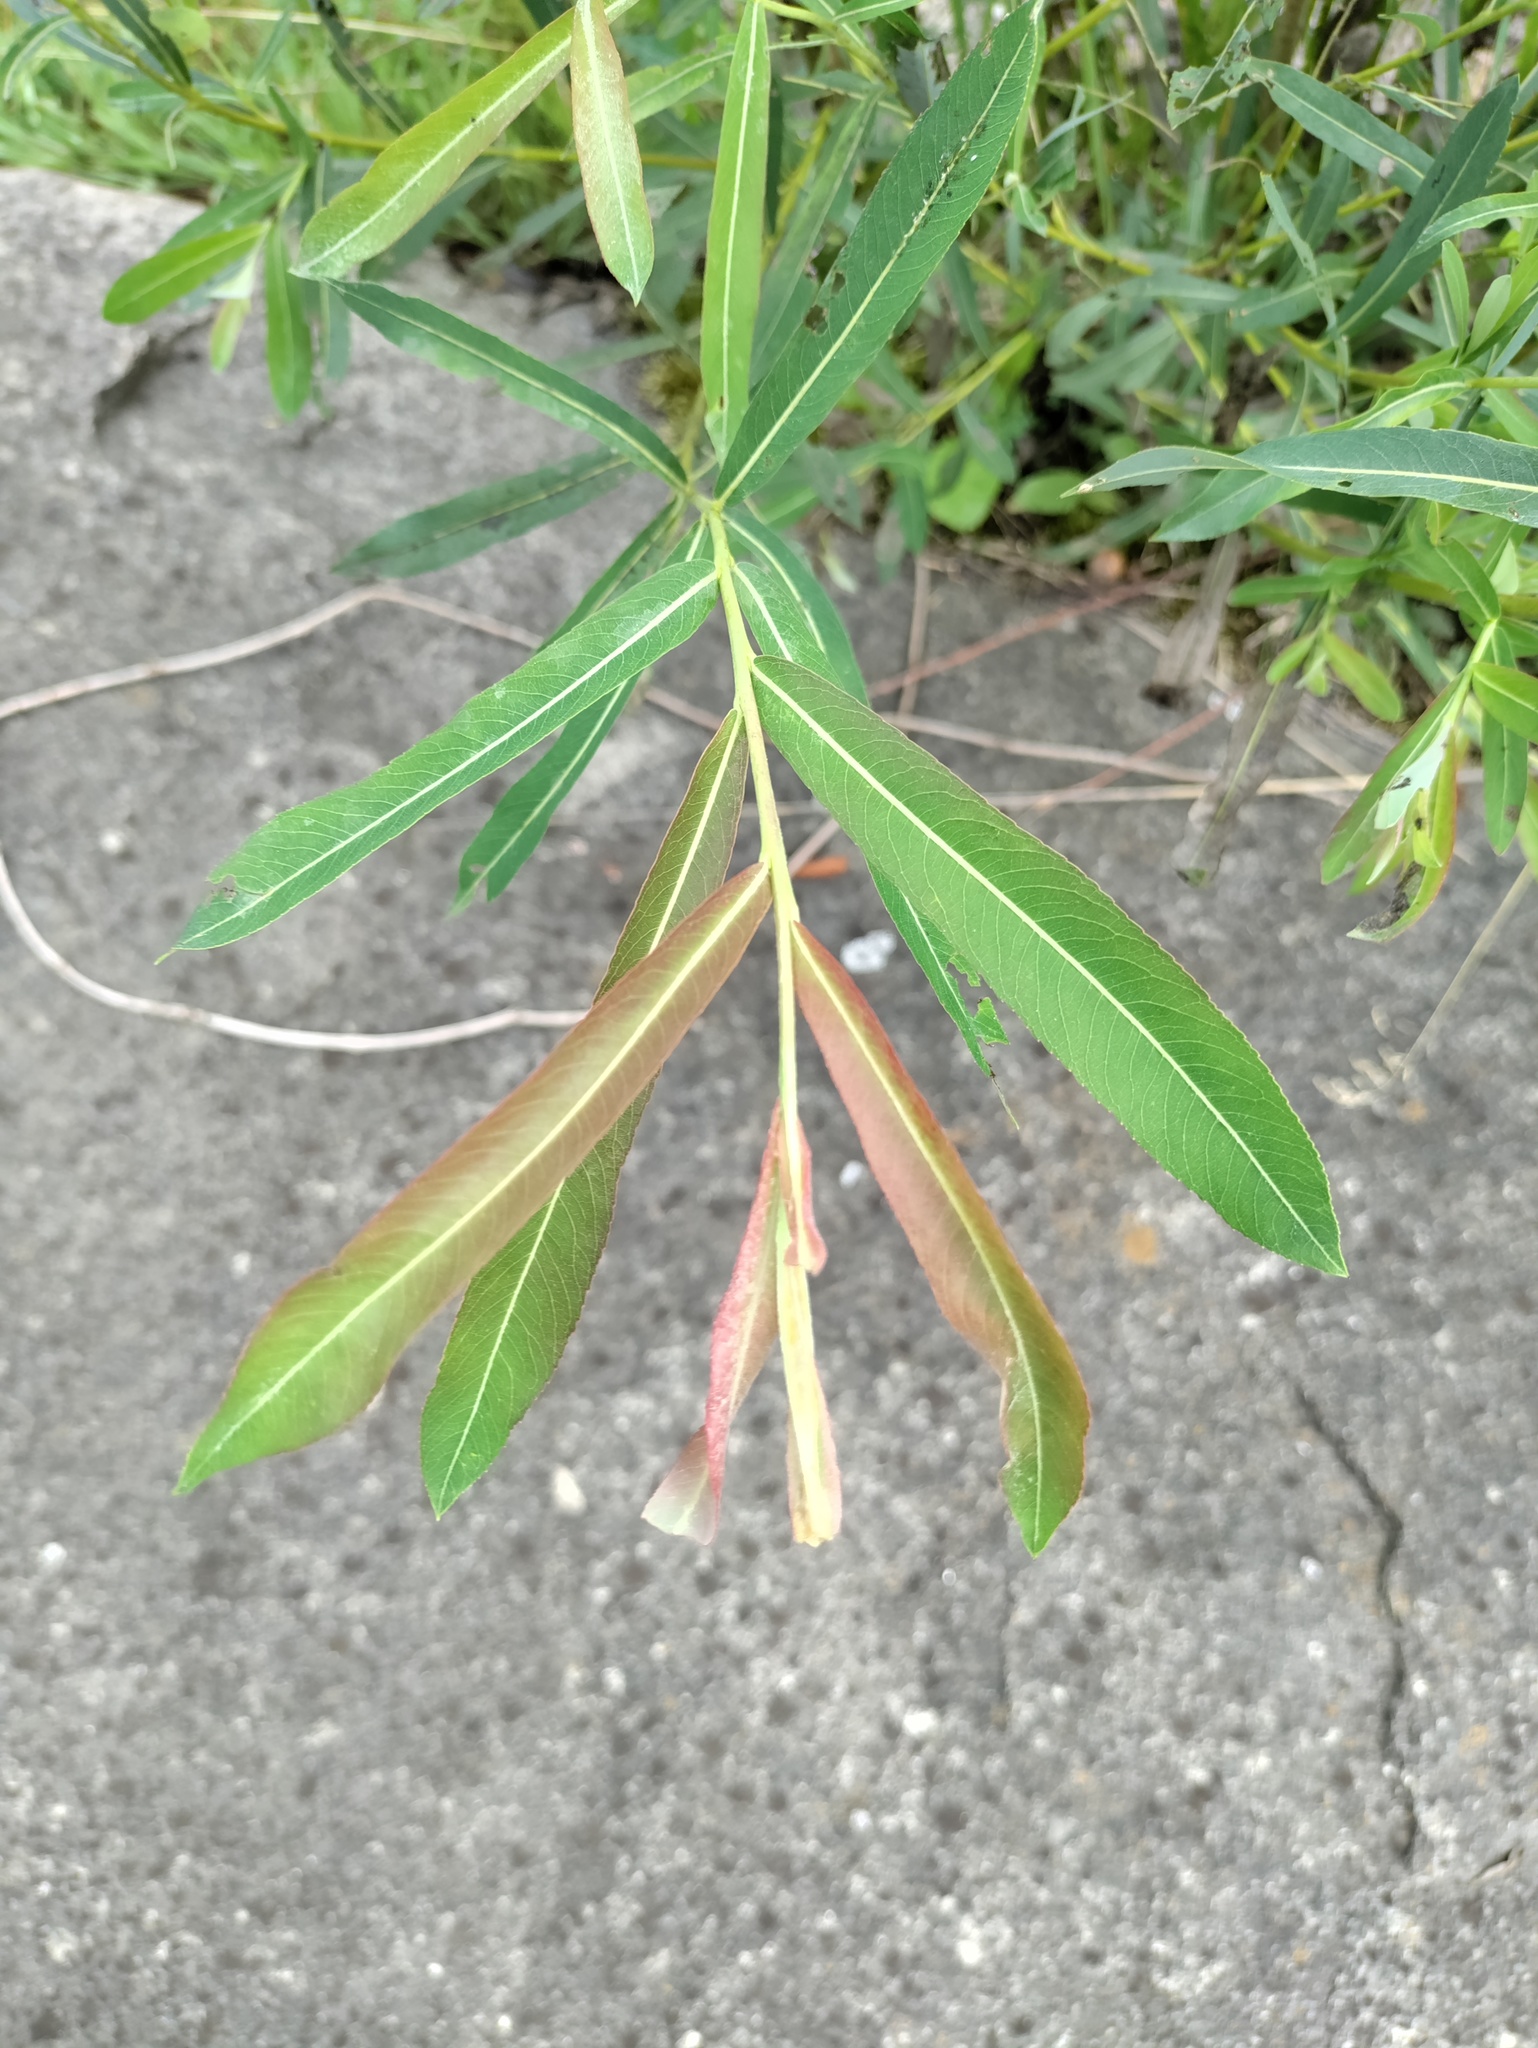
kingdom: Plantae
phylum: Tracheophyta
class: Magnoliopsida
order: Malpighiales
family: Salicaceae
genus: Salix
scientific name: Salix purpurea
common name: Purple willow
